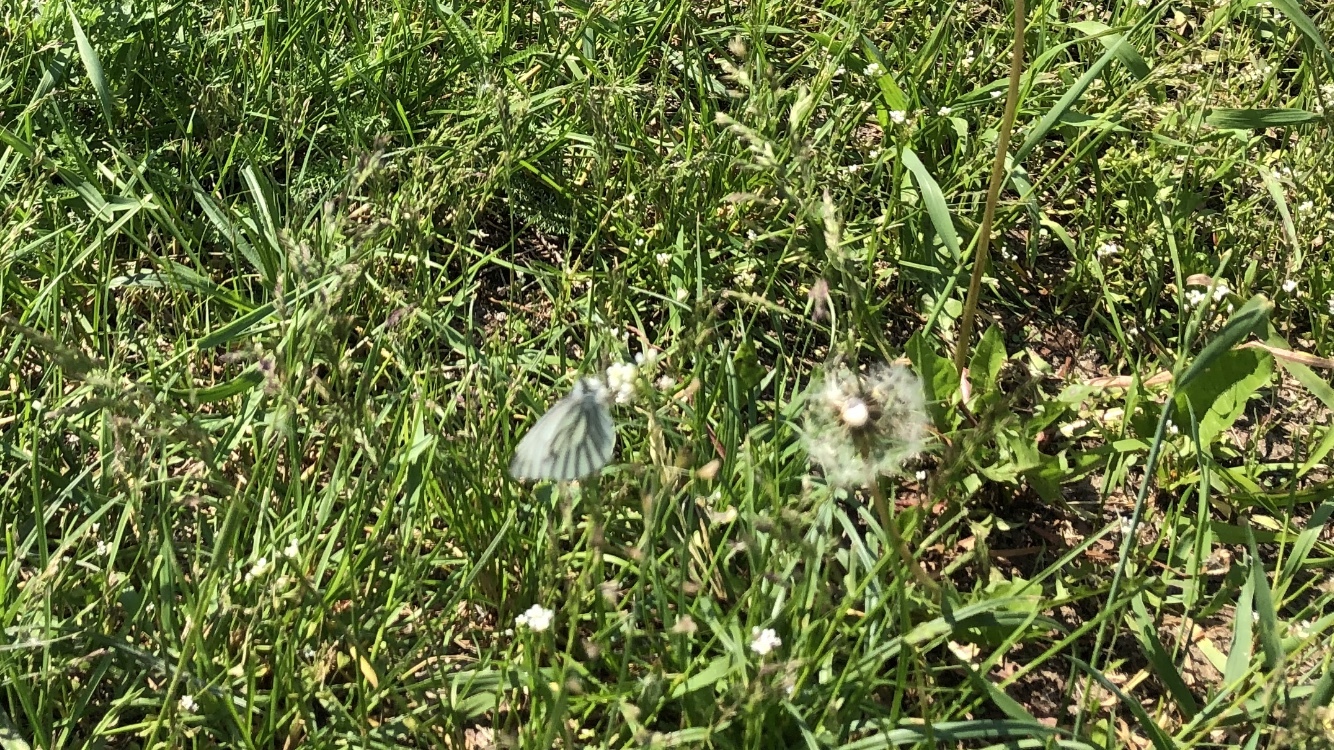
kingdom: Animalia
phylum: Arthropoda
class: Insecta
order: Lepidoptera
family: Pieridae
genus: Pieris
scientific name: Pieris napi
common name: Green-veined white
